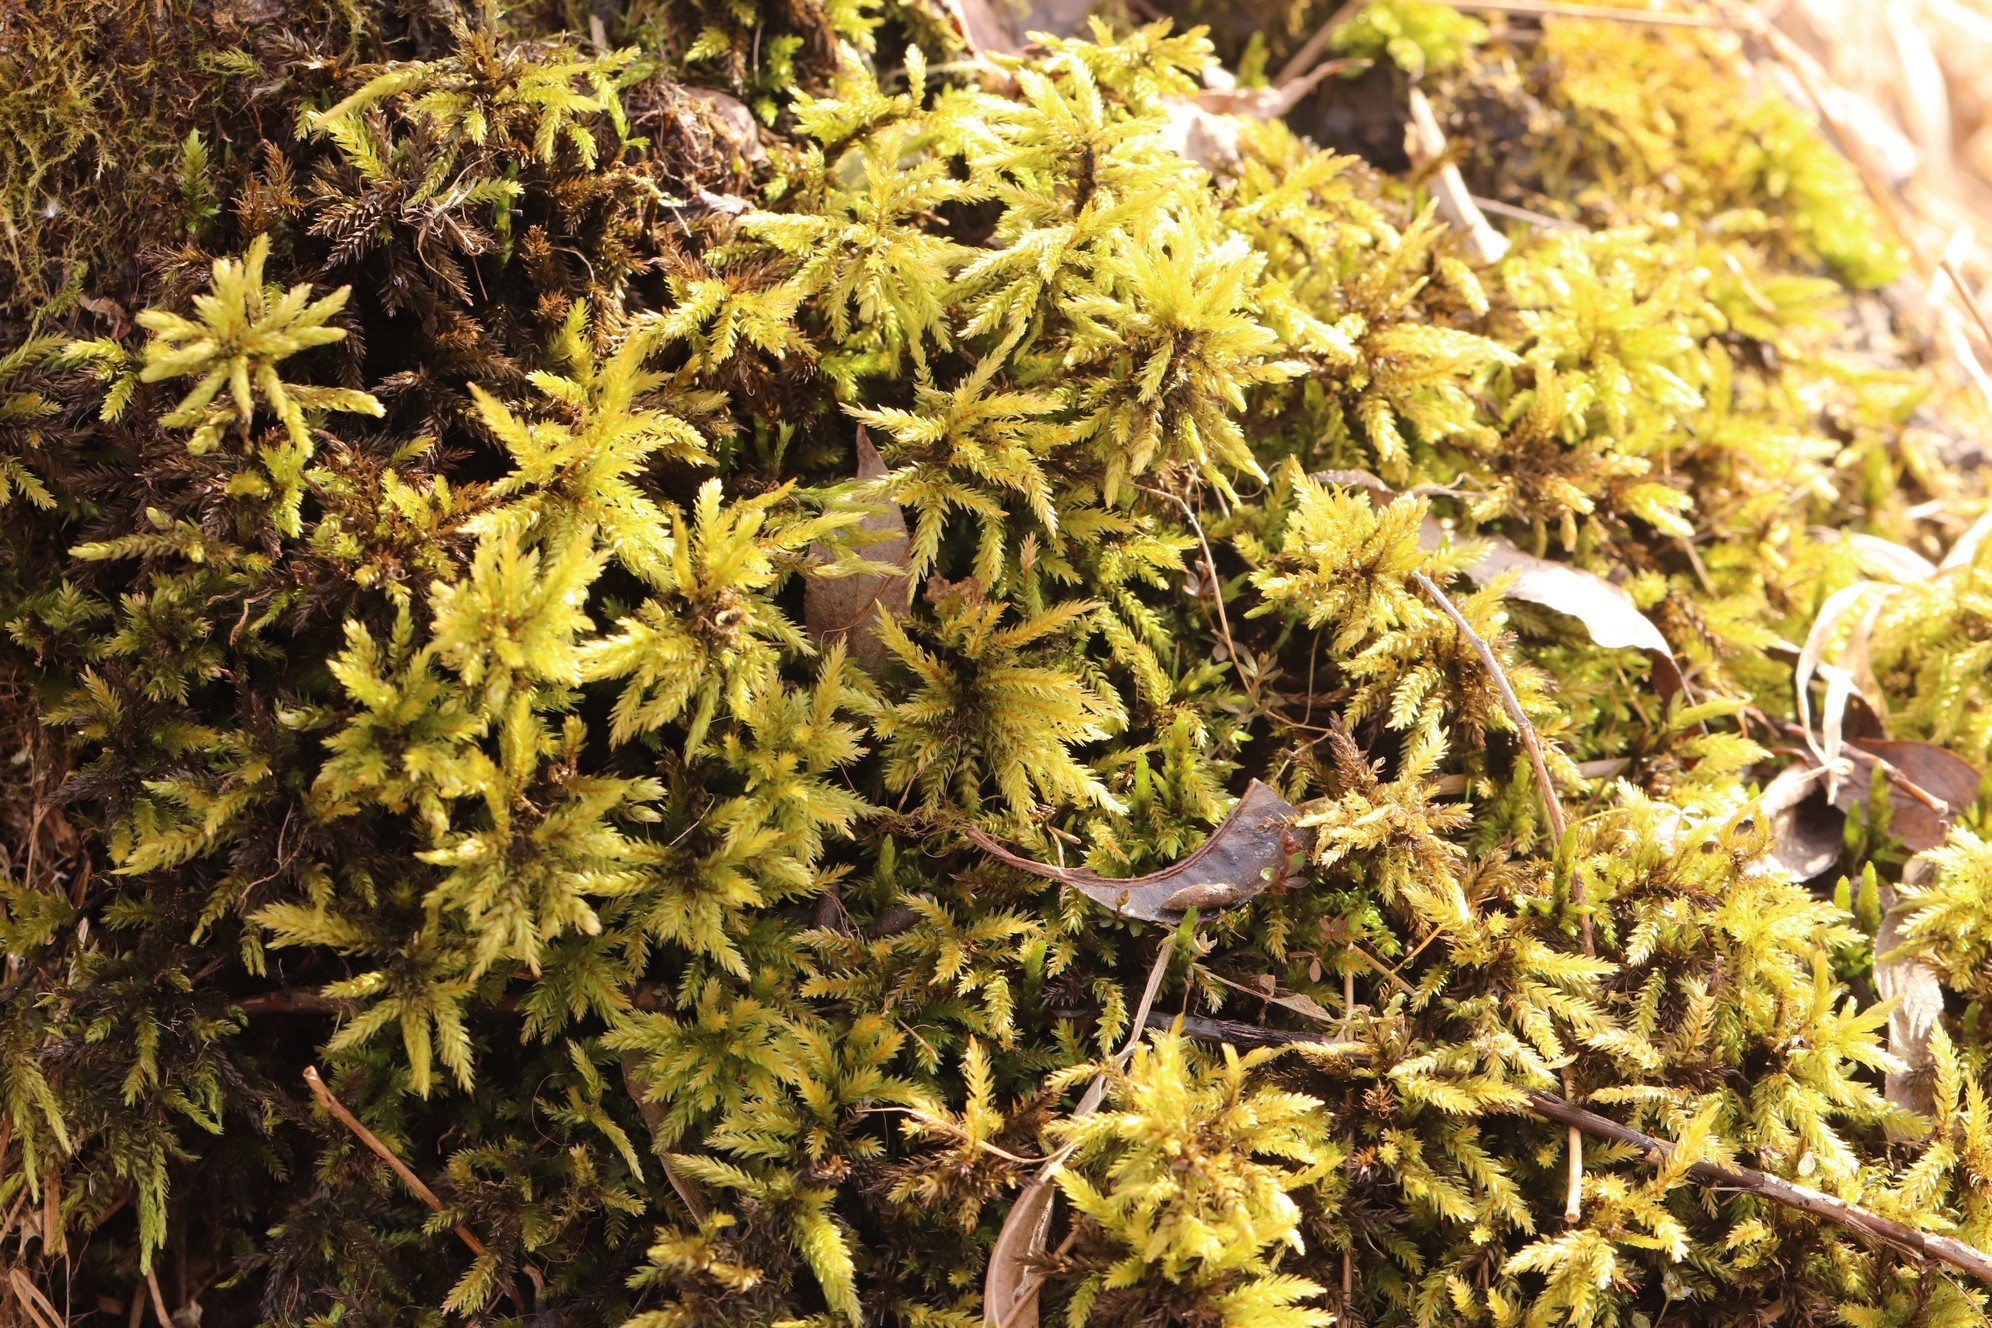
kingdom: Plantae
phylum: Bryophyta
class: Bryopsida
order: Hypnales
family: Climaciaceae
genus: Climacium
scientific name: Climacium dendroides
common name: Northern tree moss
